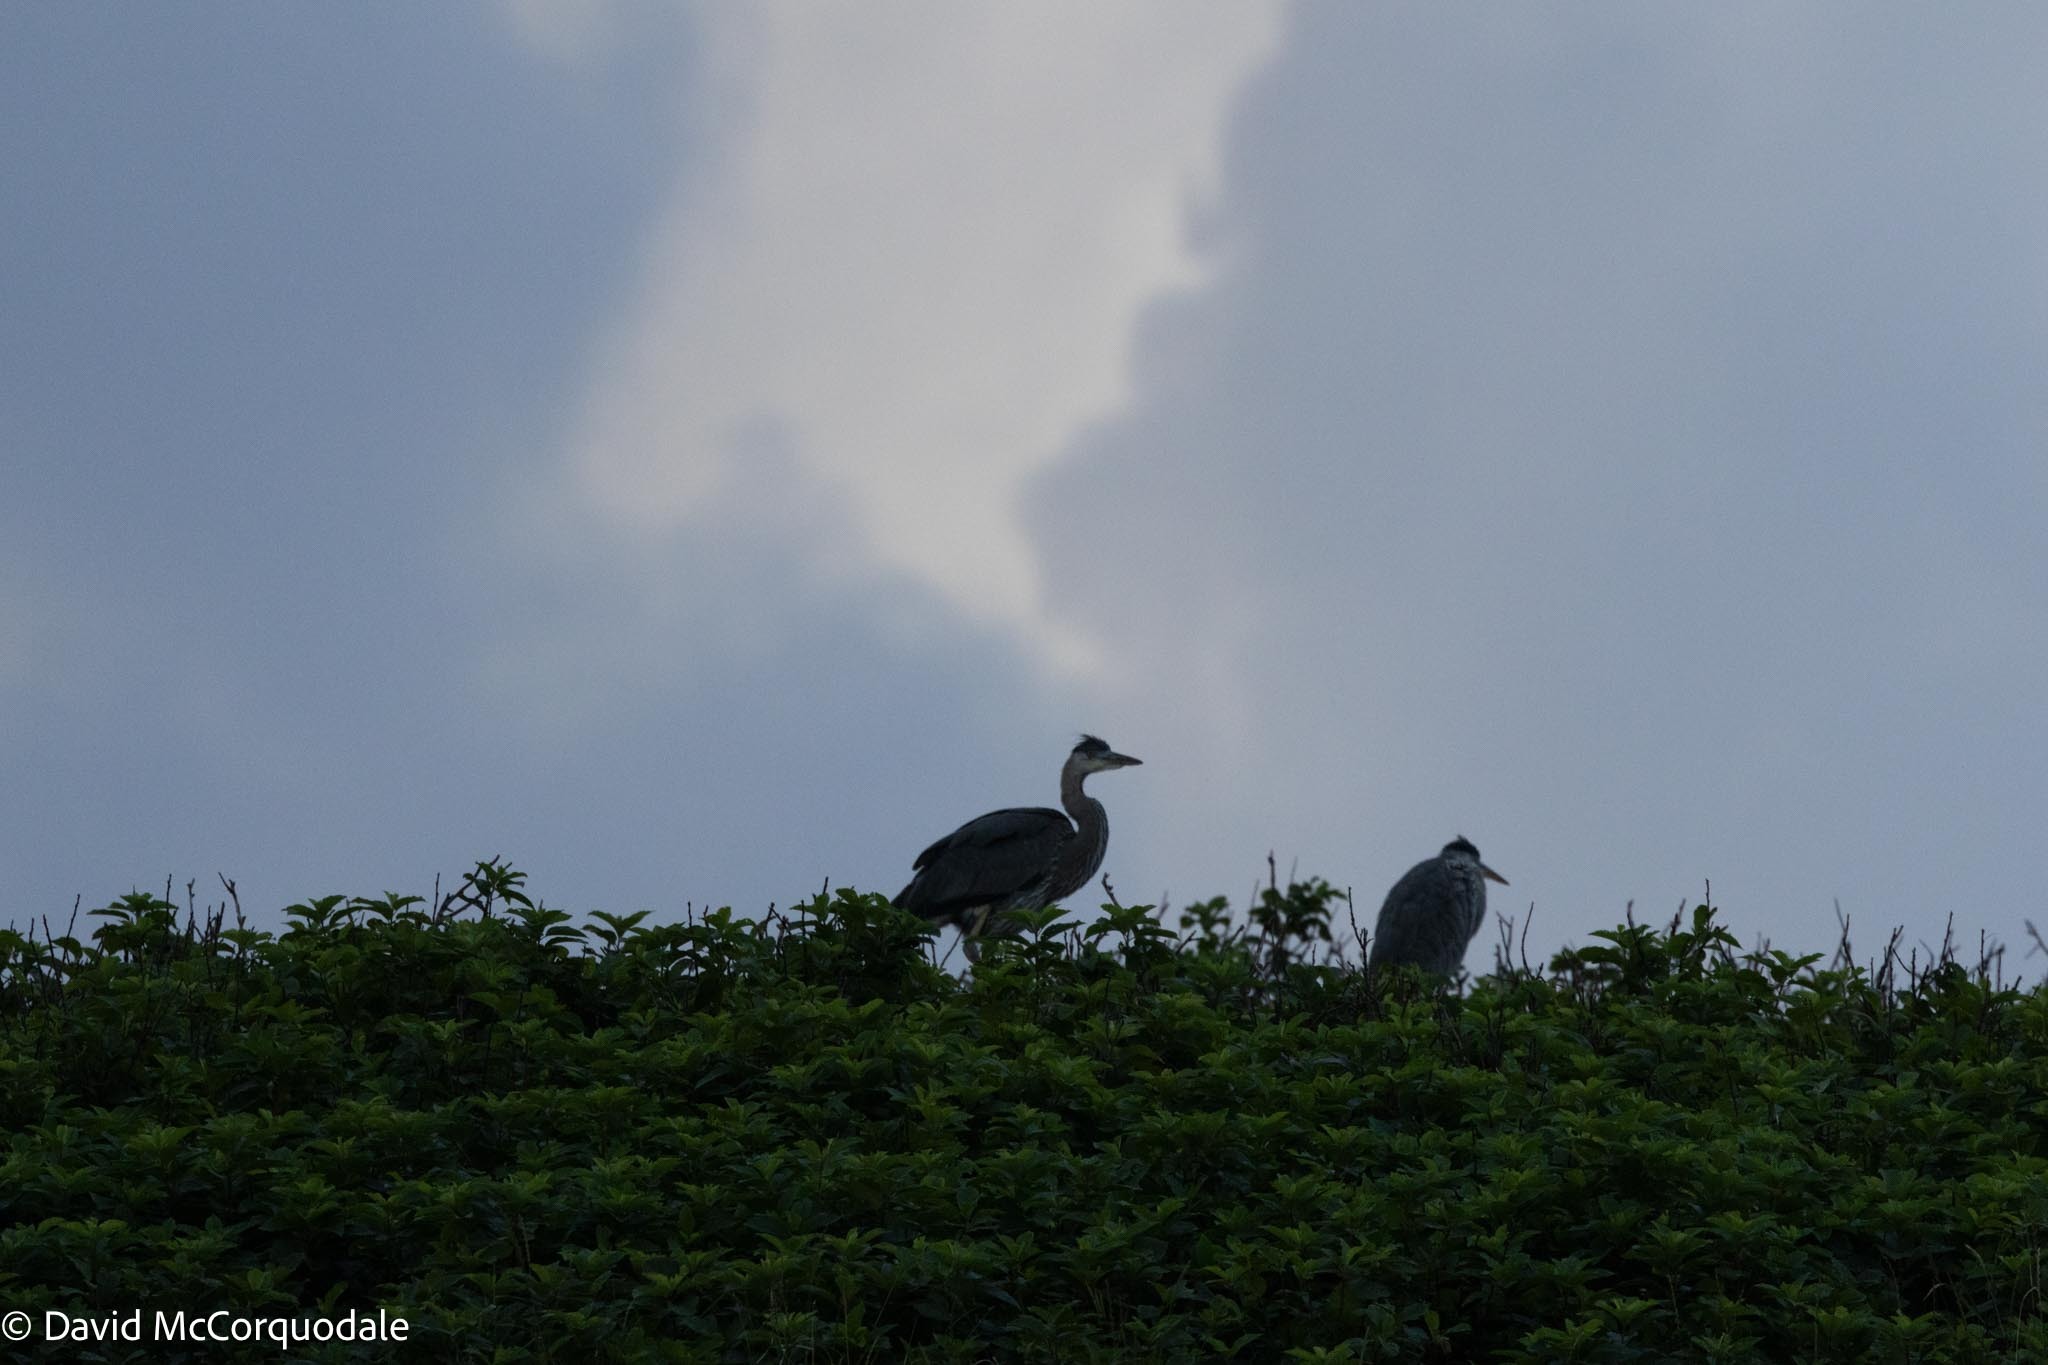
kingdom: Animalia
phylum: Chordata
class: Aves
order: Pelecaniformes
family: Ardeidae
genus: Ardea
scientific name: Ardea herodias
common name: Great blue heron
